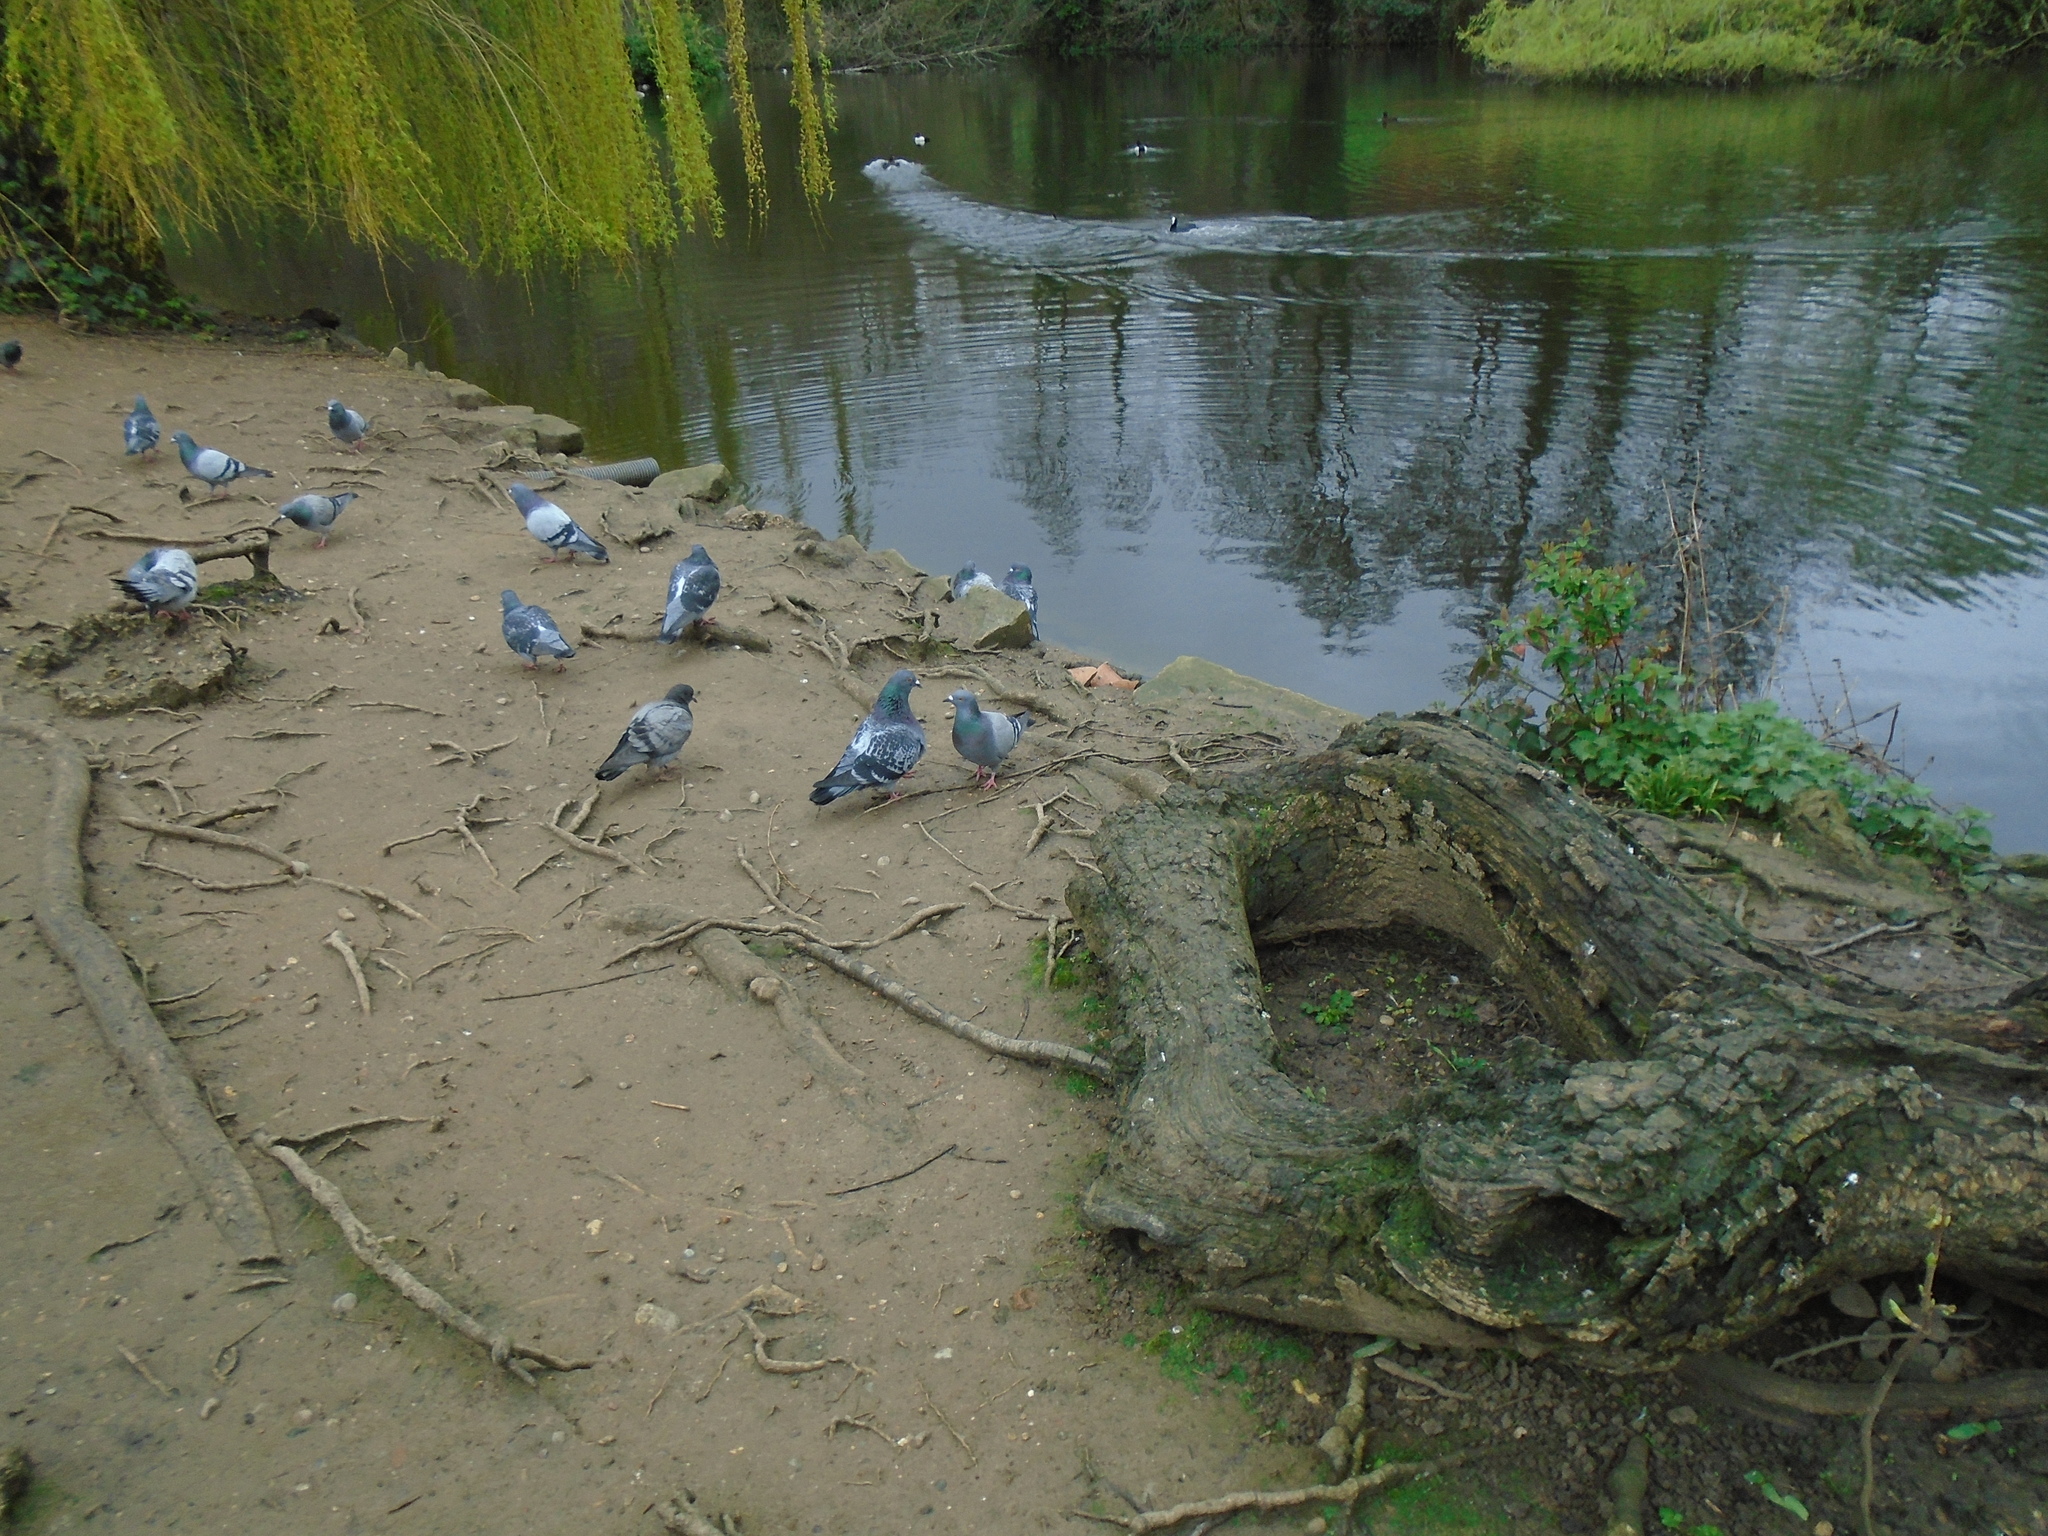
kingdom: Animalia
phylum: Chordata
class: Aves
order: Columbiformes
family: Columbidae
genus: Columba
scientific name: Columba livia
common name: Rock pigeon
